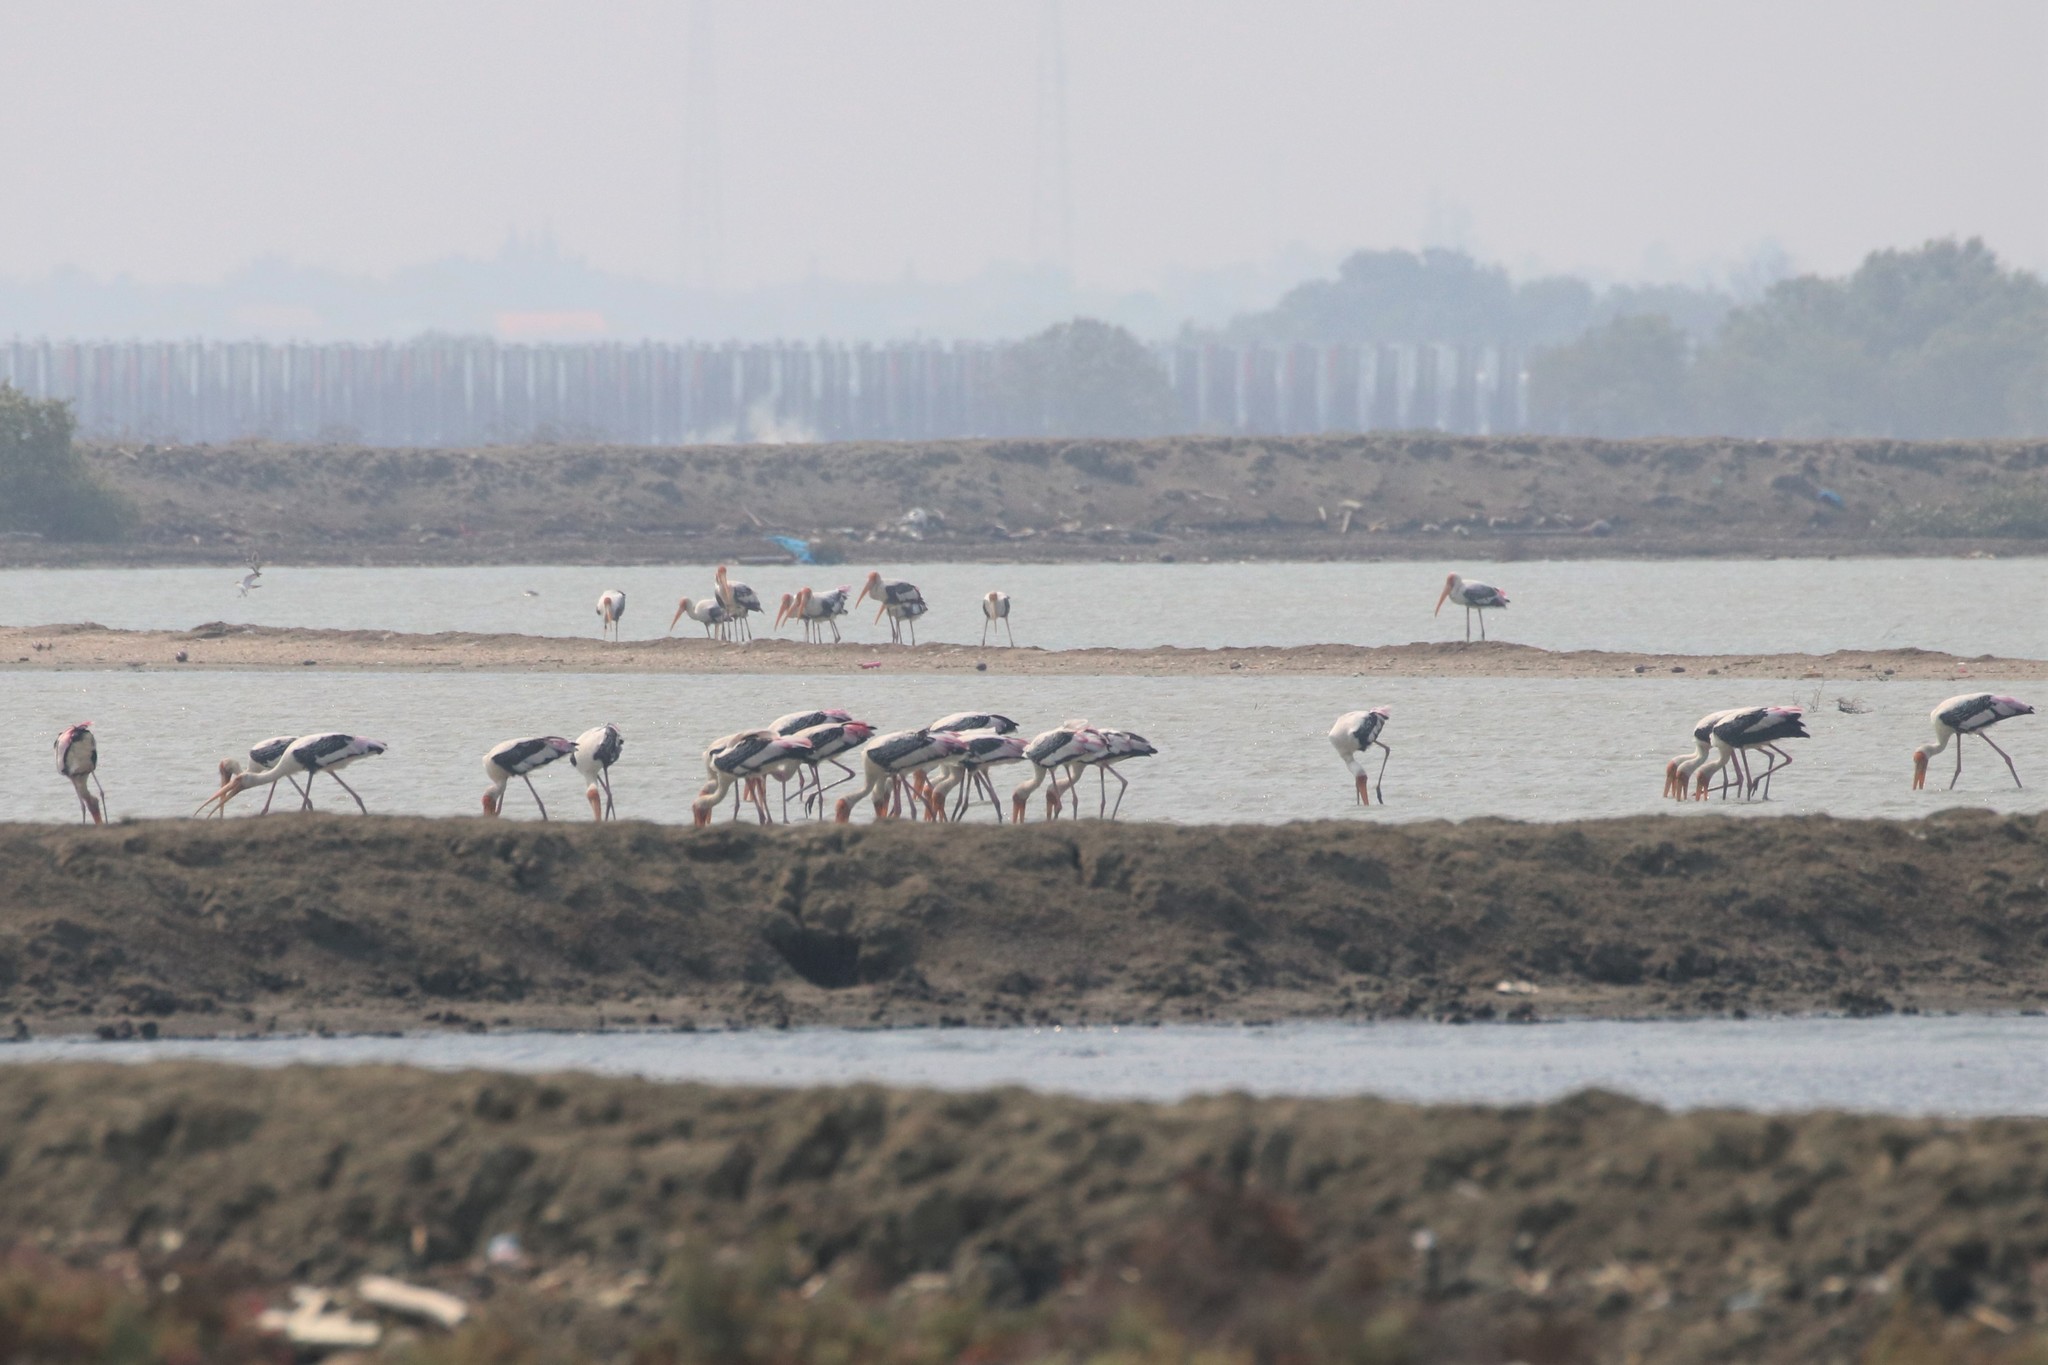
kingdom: Animalia
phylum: Chordata
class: Aves
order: Ciconiiformes
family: Ciconiidae
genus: Mycteria
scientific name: Mycteria leucocephala
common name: Painted stork
